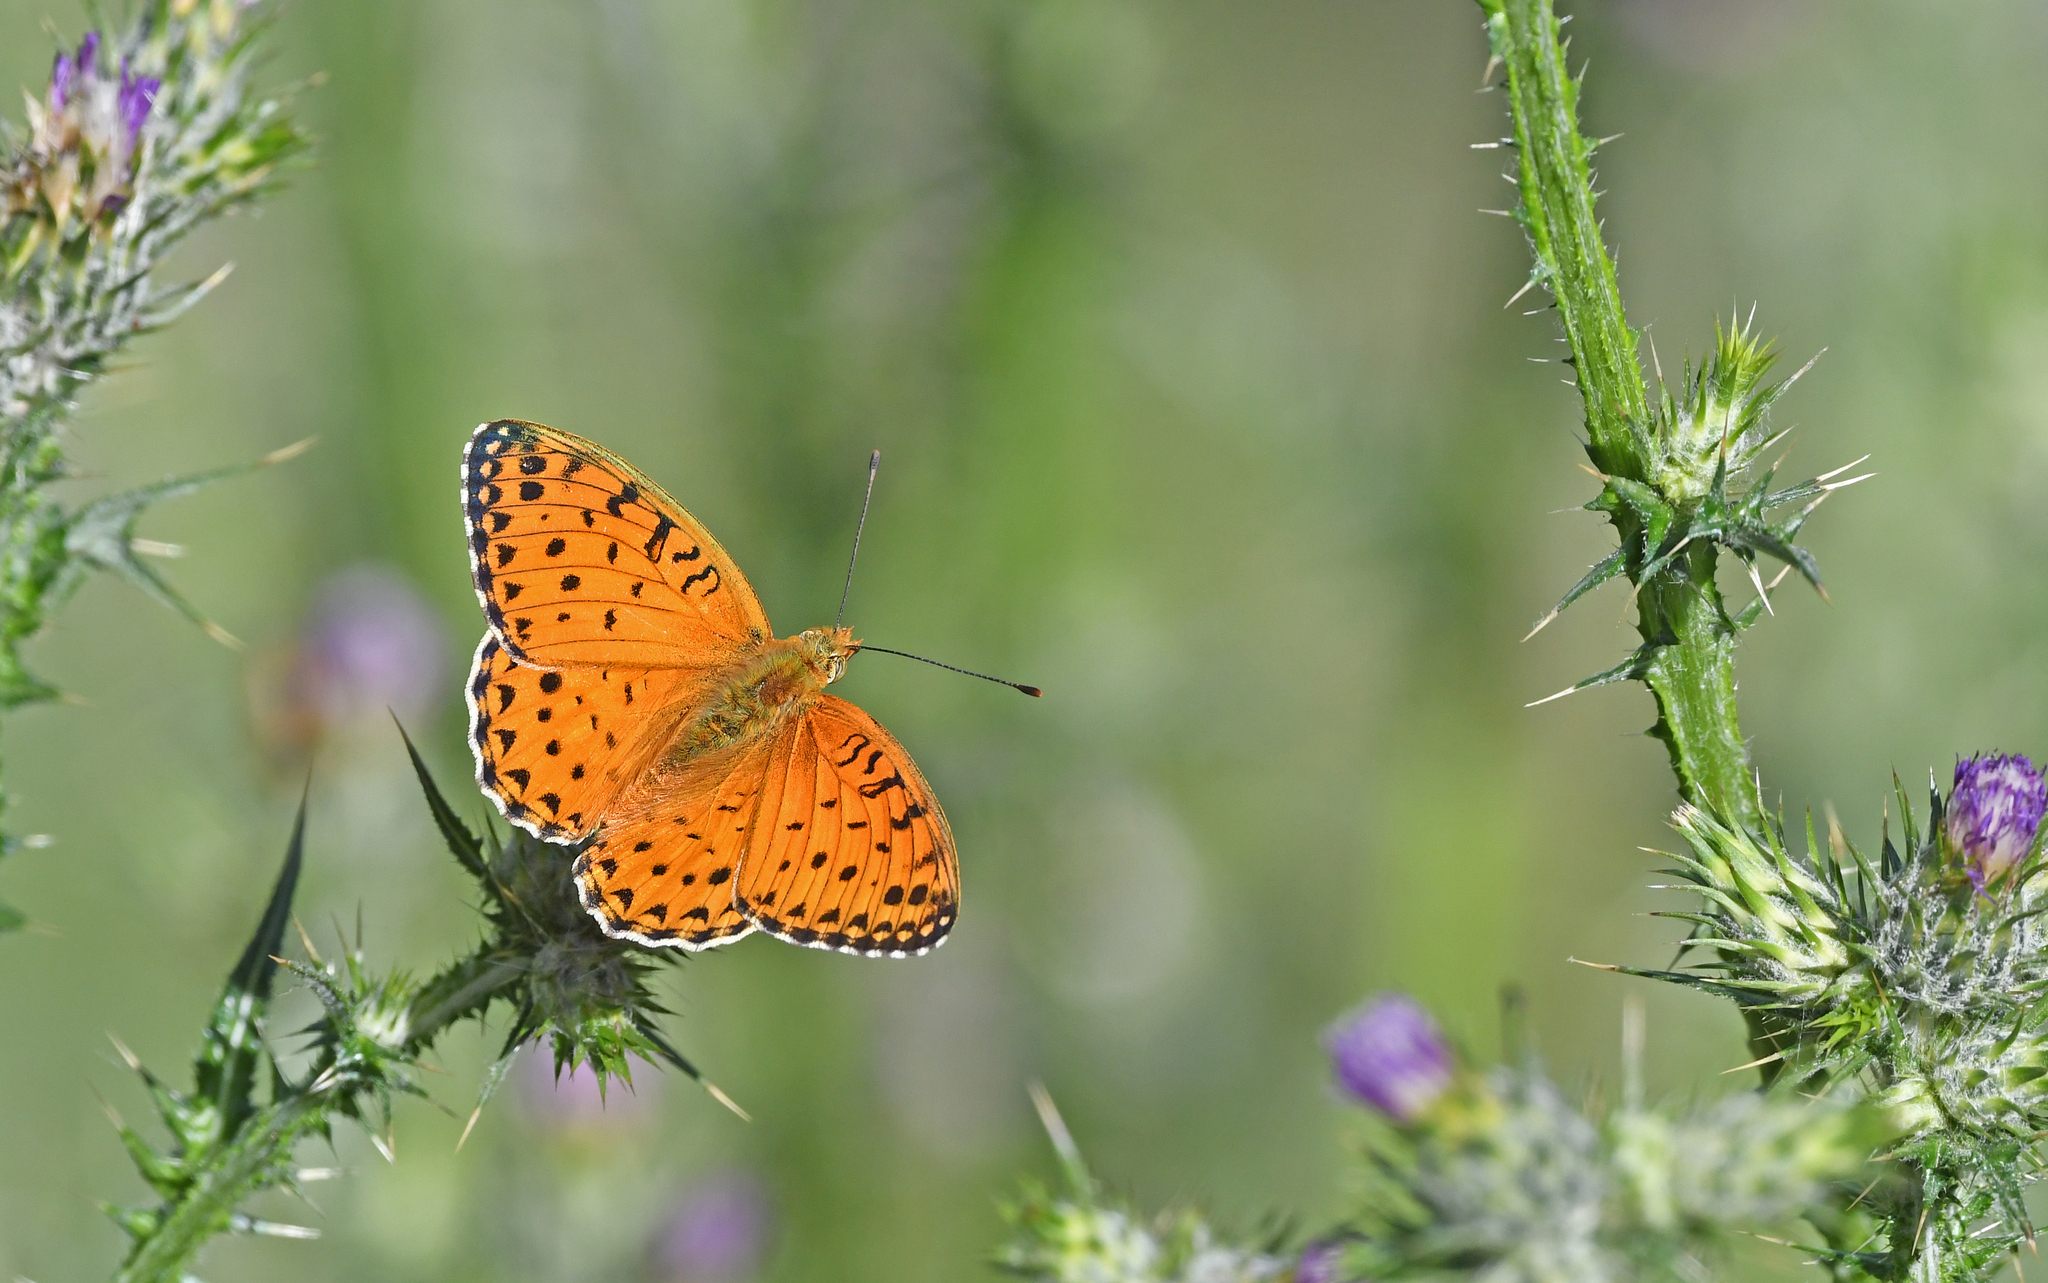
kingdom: Animalia
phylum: Arthropoda
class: Insecta
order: Lepidoptera
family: Nymphalidae
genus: Fabriciana
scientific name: Fabriciana niobe
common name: Niobe fritillary
